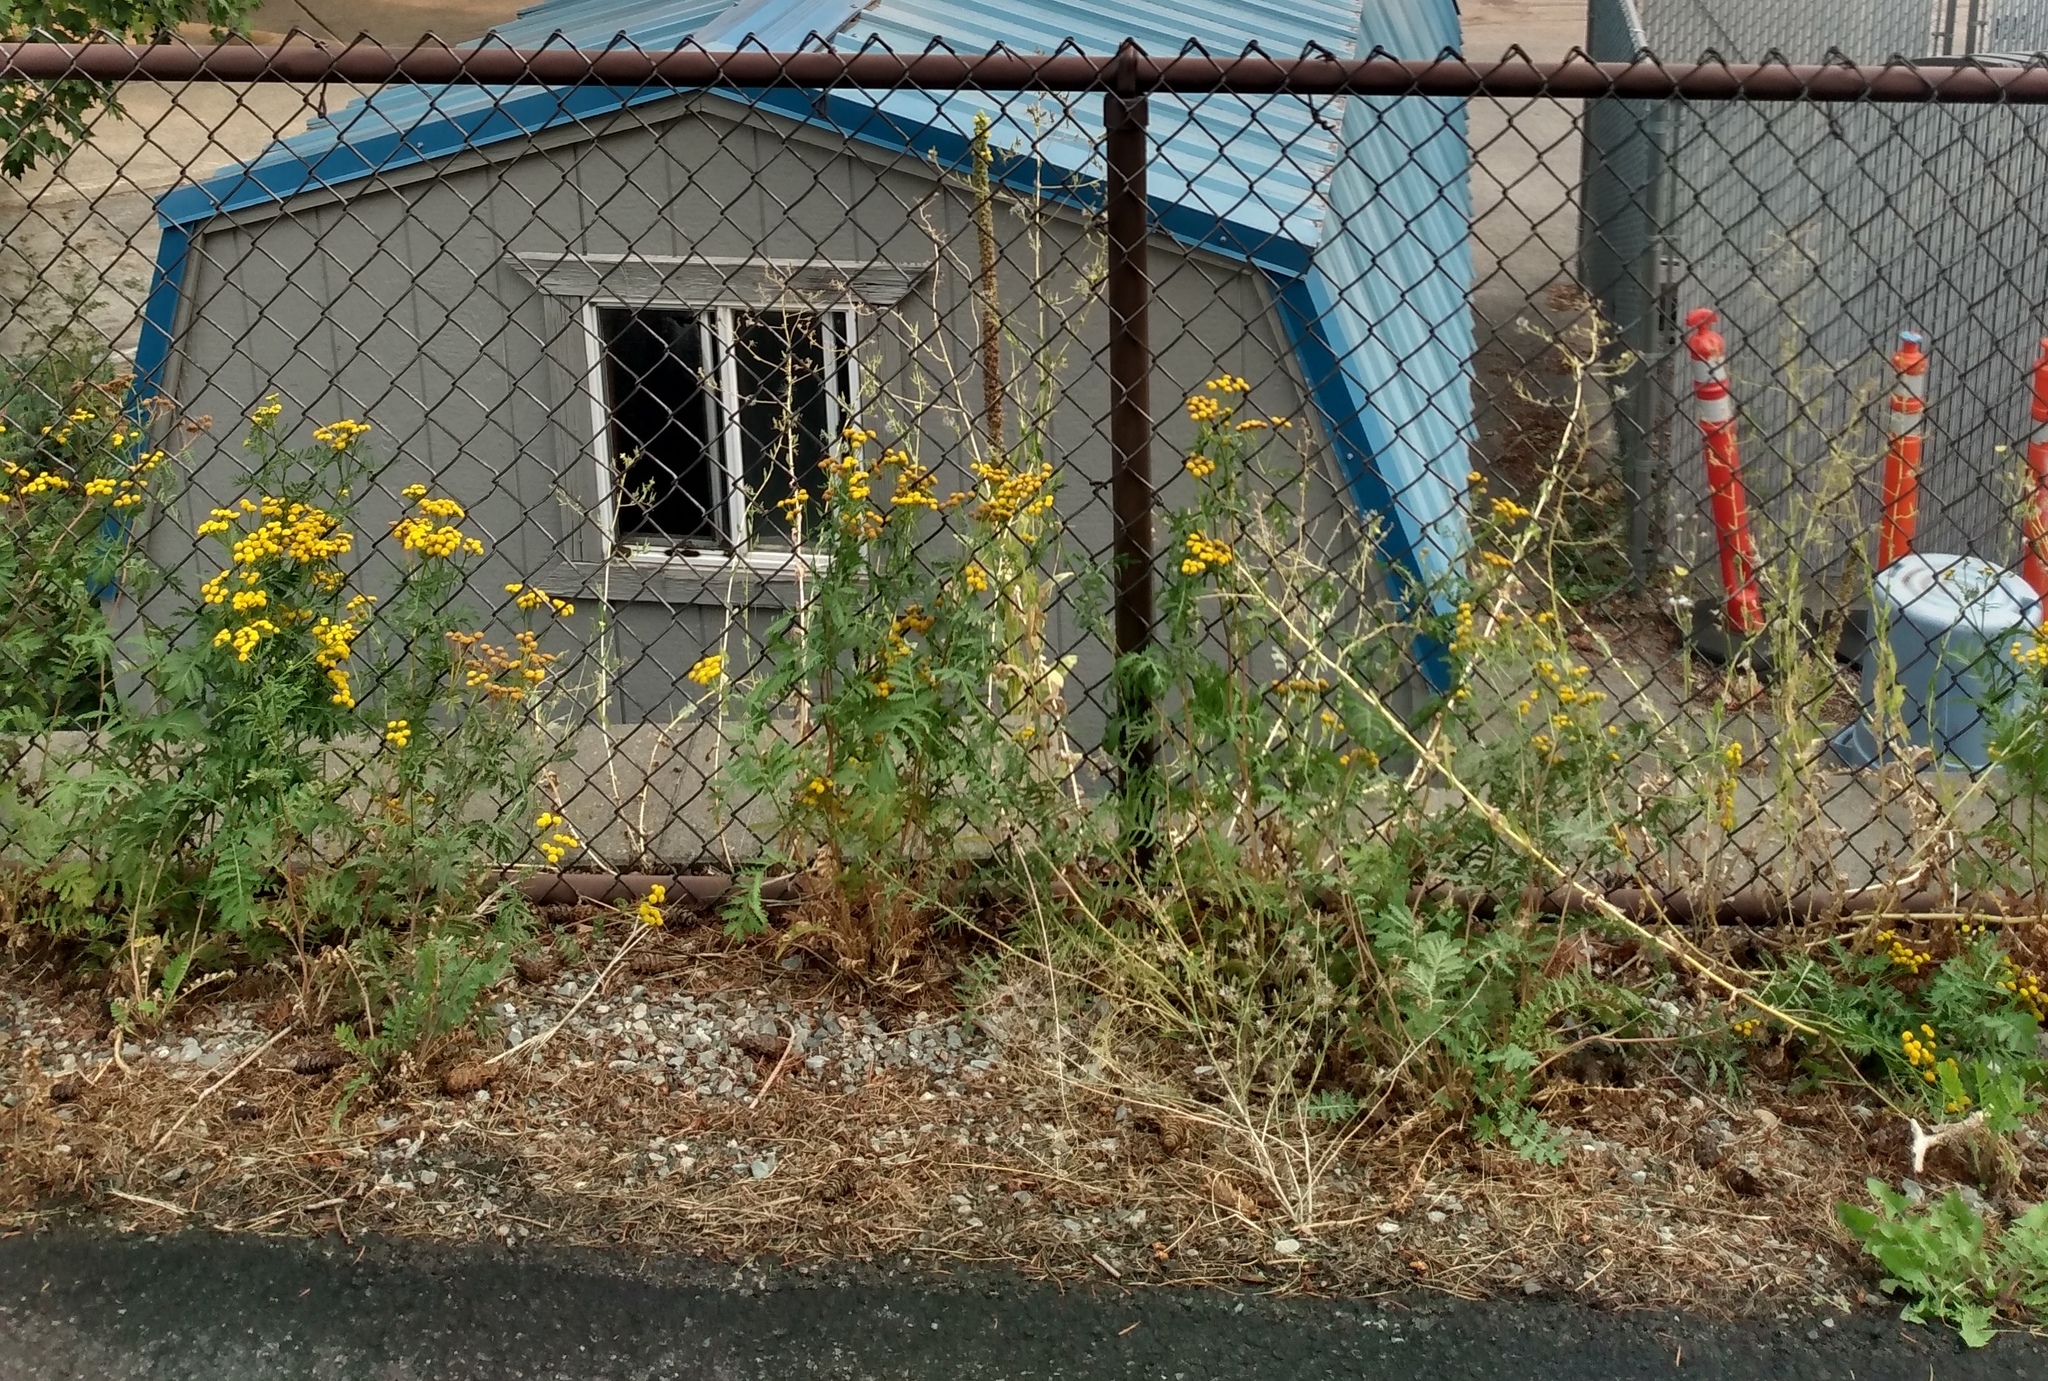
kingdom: Plantae
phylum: Tracheophyta
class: Magnoliopsida
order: Asterales
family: Asteraceae
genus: Tanacetum
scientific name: Tanacetum vulgare
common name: Common tansy
